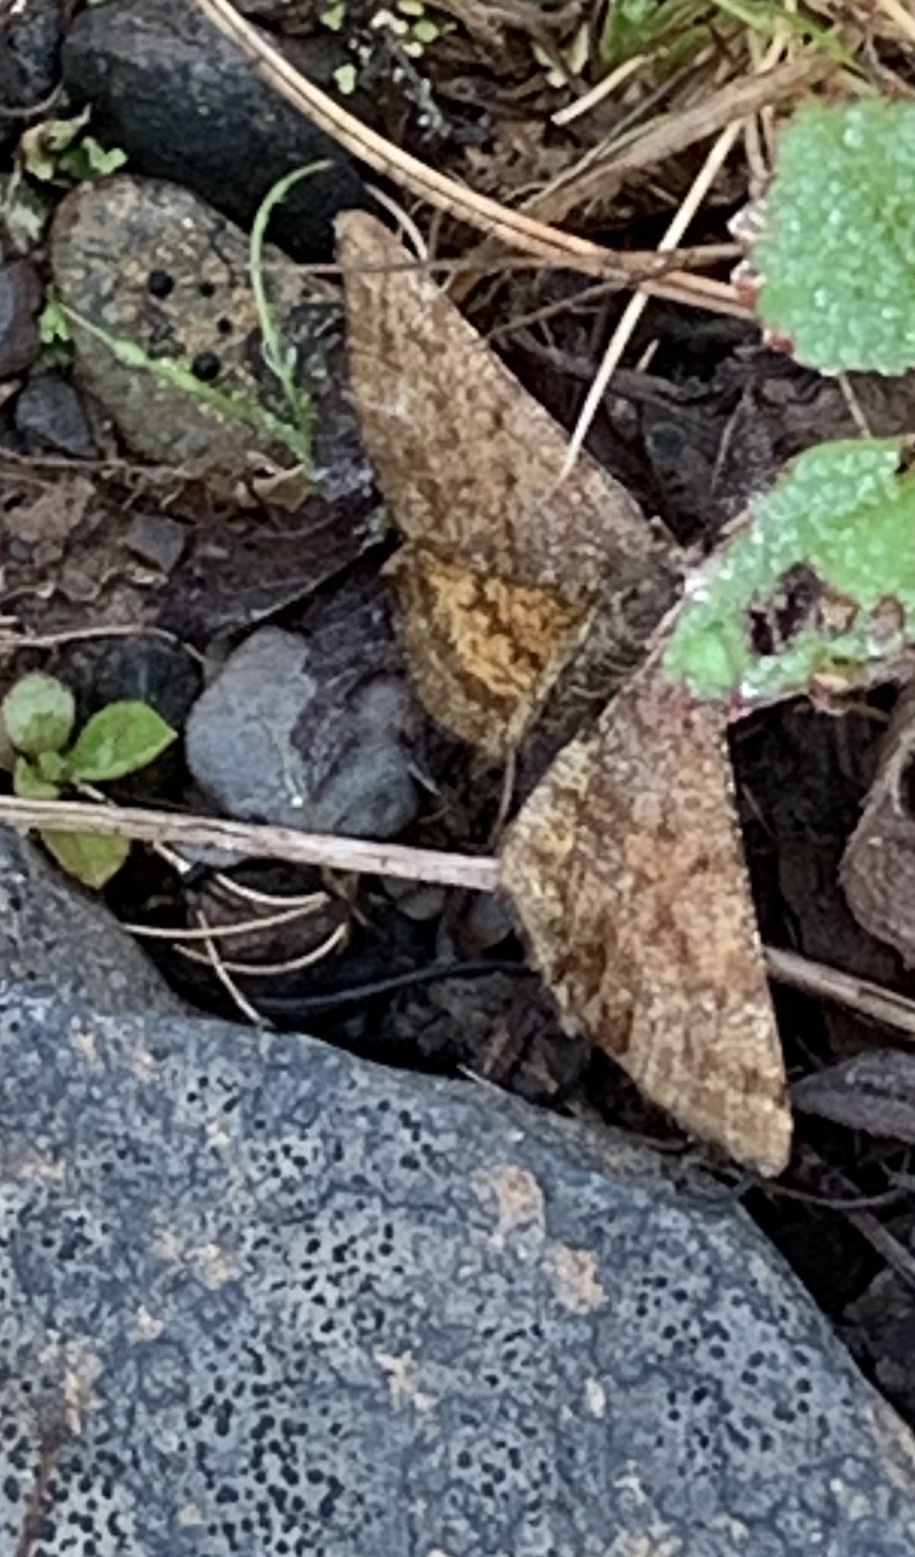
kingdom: Animalia
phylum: Arthropoda
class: Insecta
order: Lepidoptera
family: Geometridae
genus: Ematurga
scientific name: Ematurga amitaria
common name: Cranberry spanworm moth
